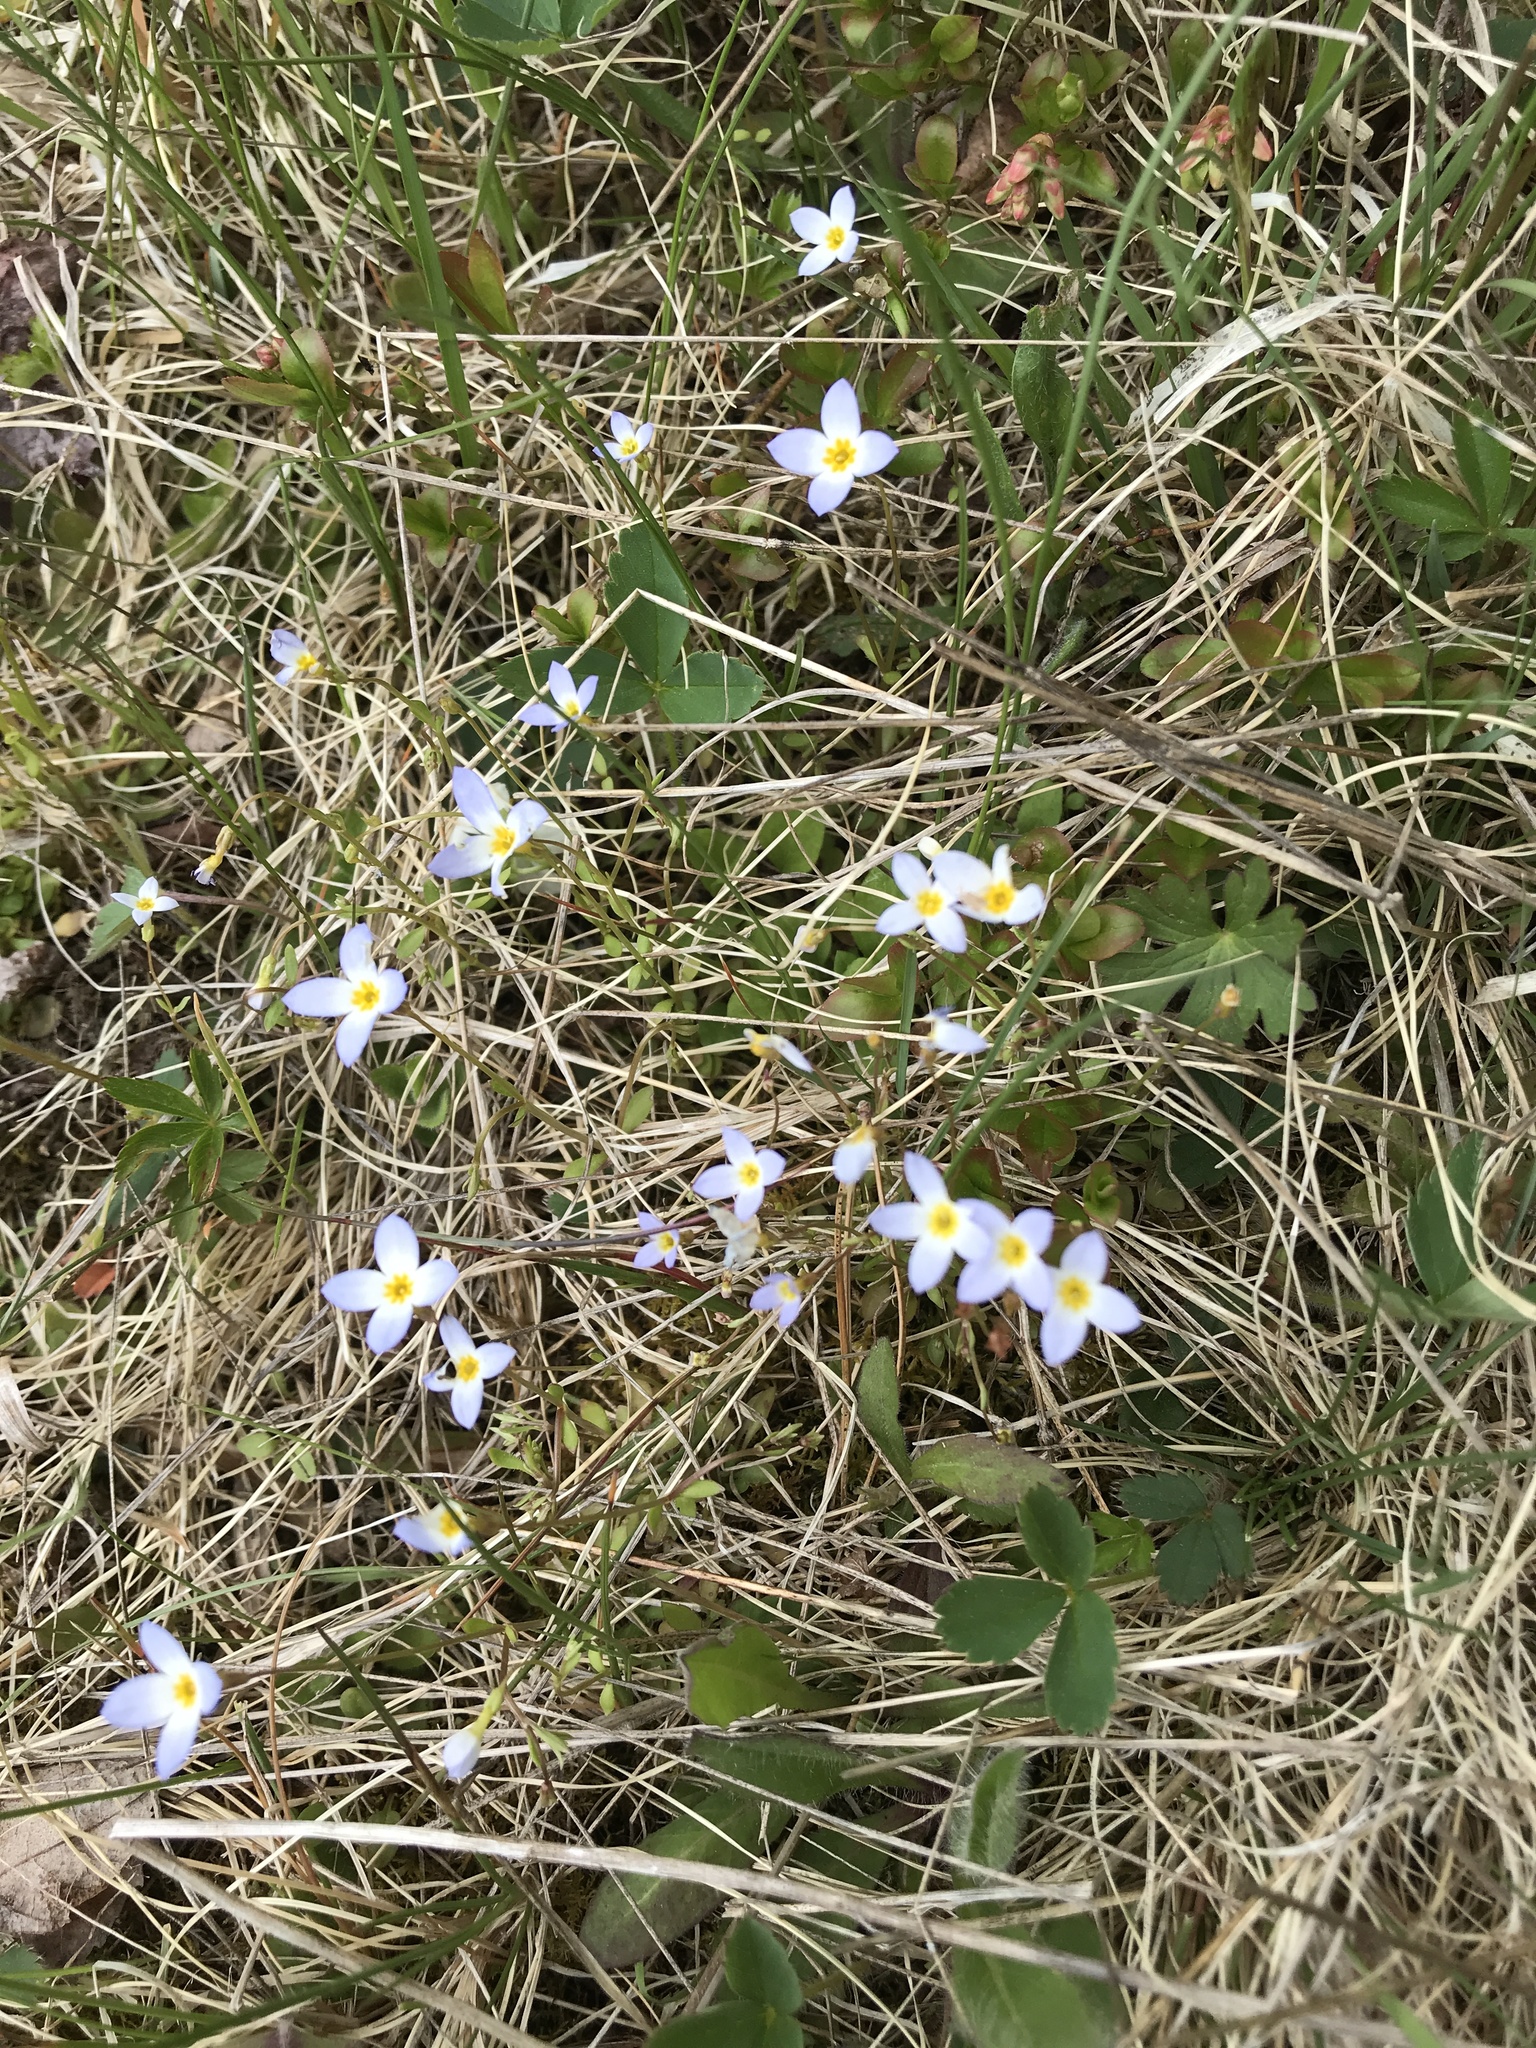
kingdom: Plantae
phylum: Tracheophyta
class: Magnoliopsida
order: Gentianales
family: Rubiaceae
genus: Houstonia
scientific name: Houstonia caerulea
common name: Bluets
